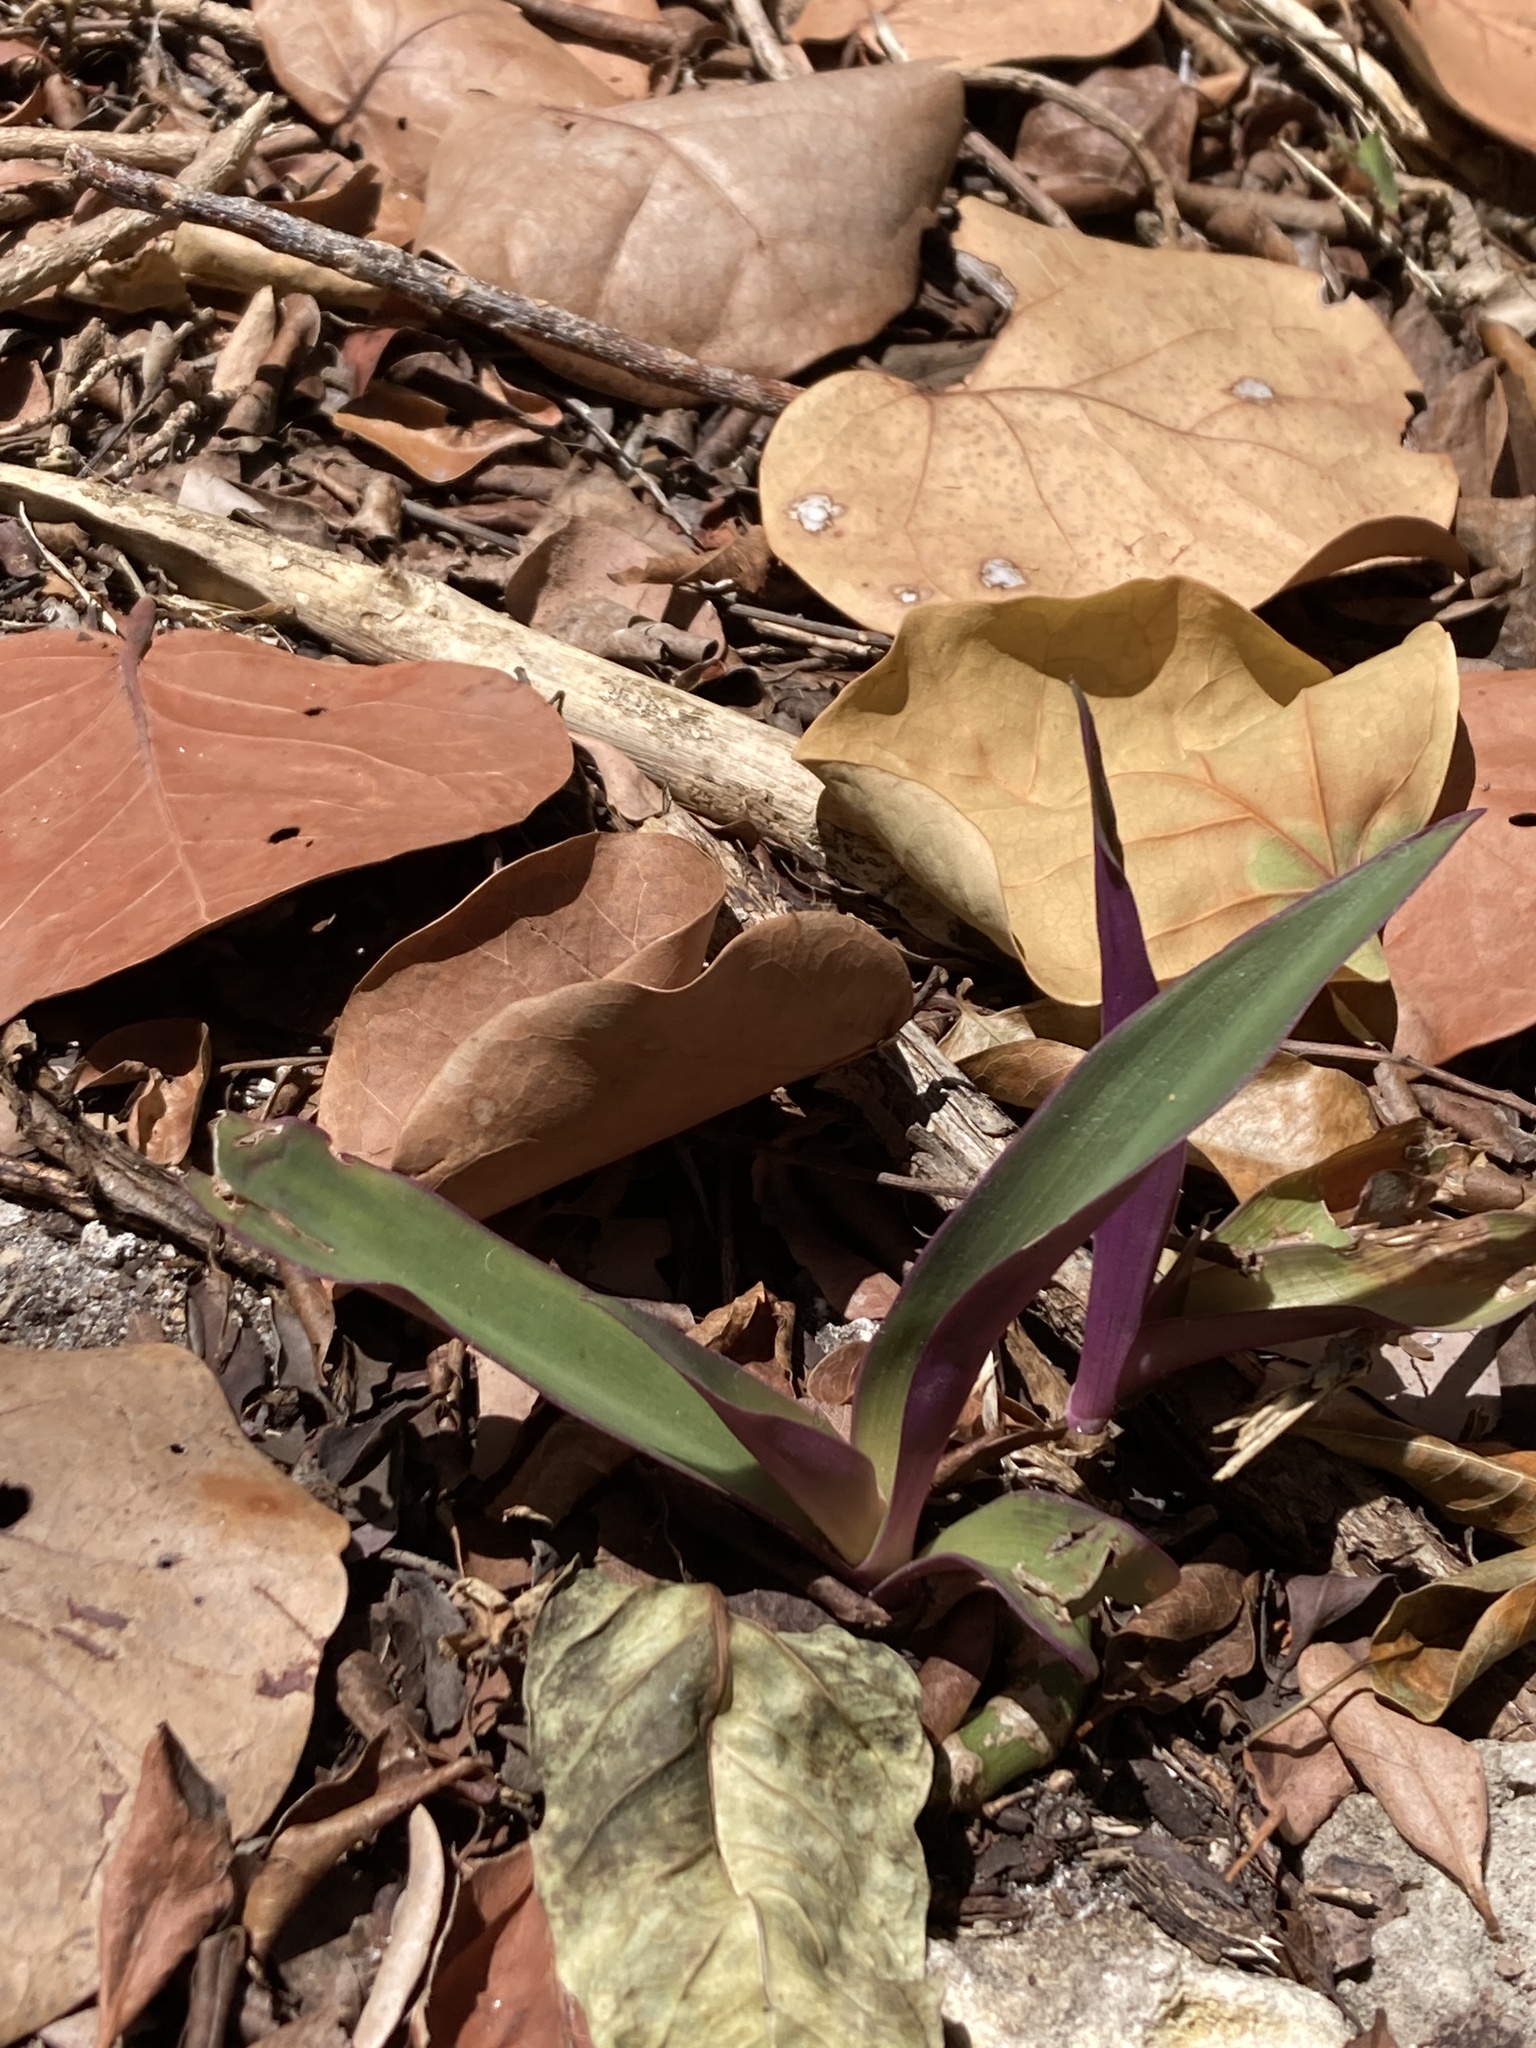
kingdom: Plantae
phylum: Tracheophyta
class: Liliopsida
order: Commelinales
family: Commelinaceae
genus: Tradescantia
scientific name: Tradescantia spathacea
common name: Boatlily
